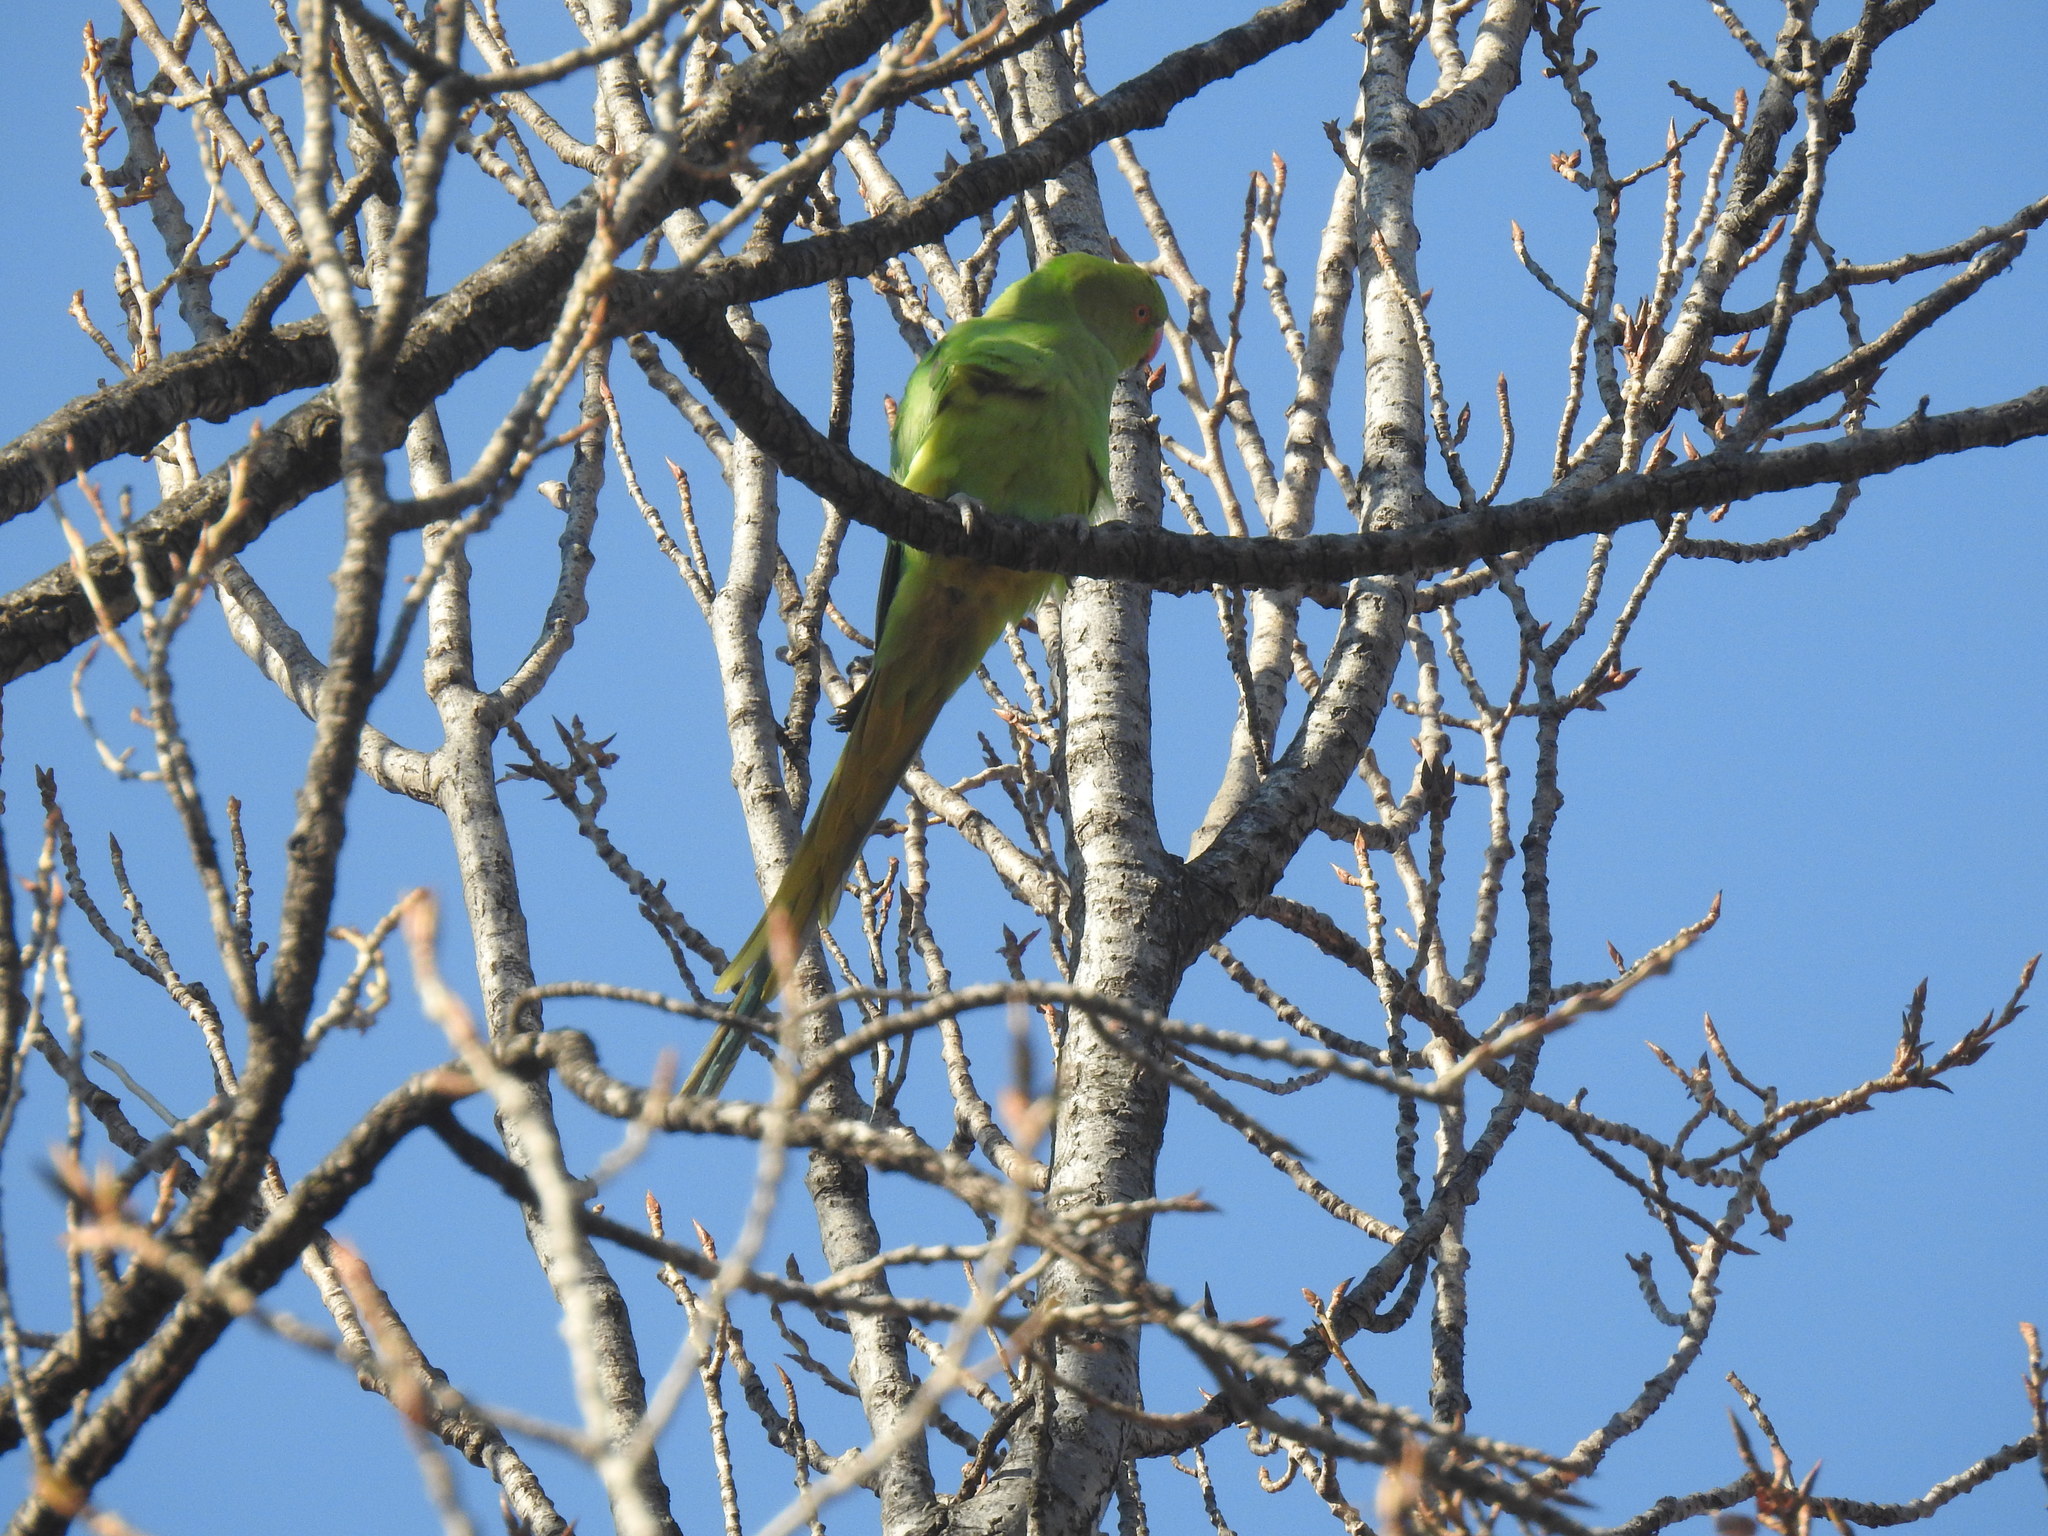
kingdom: Animalia
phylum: Chordata
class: Aves
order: Psittaciformes
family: Psittacidae
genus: Psittacula
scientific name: Psittacula krameri
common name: Rose-ringed parakeet
